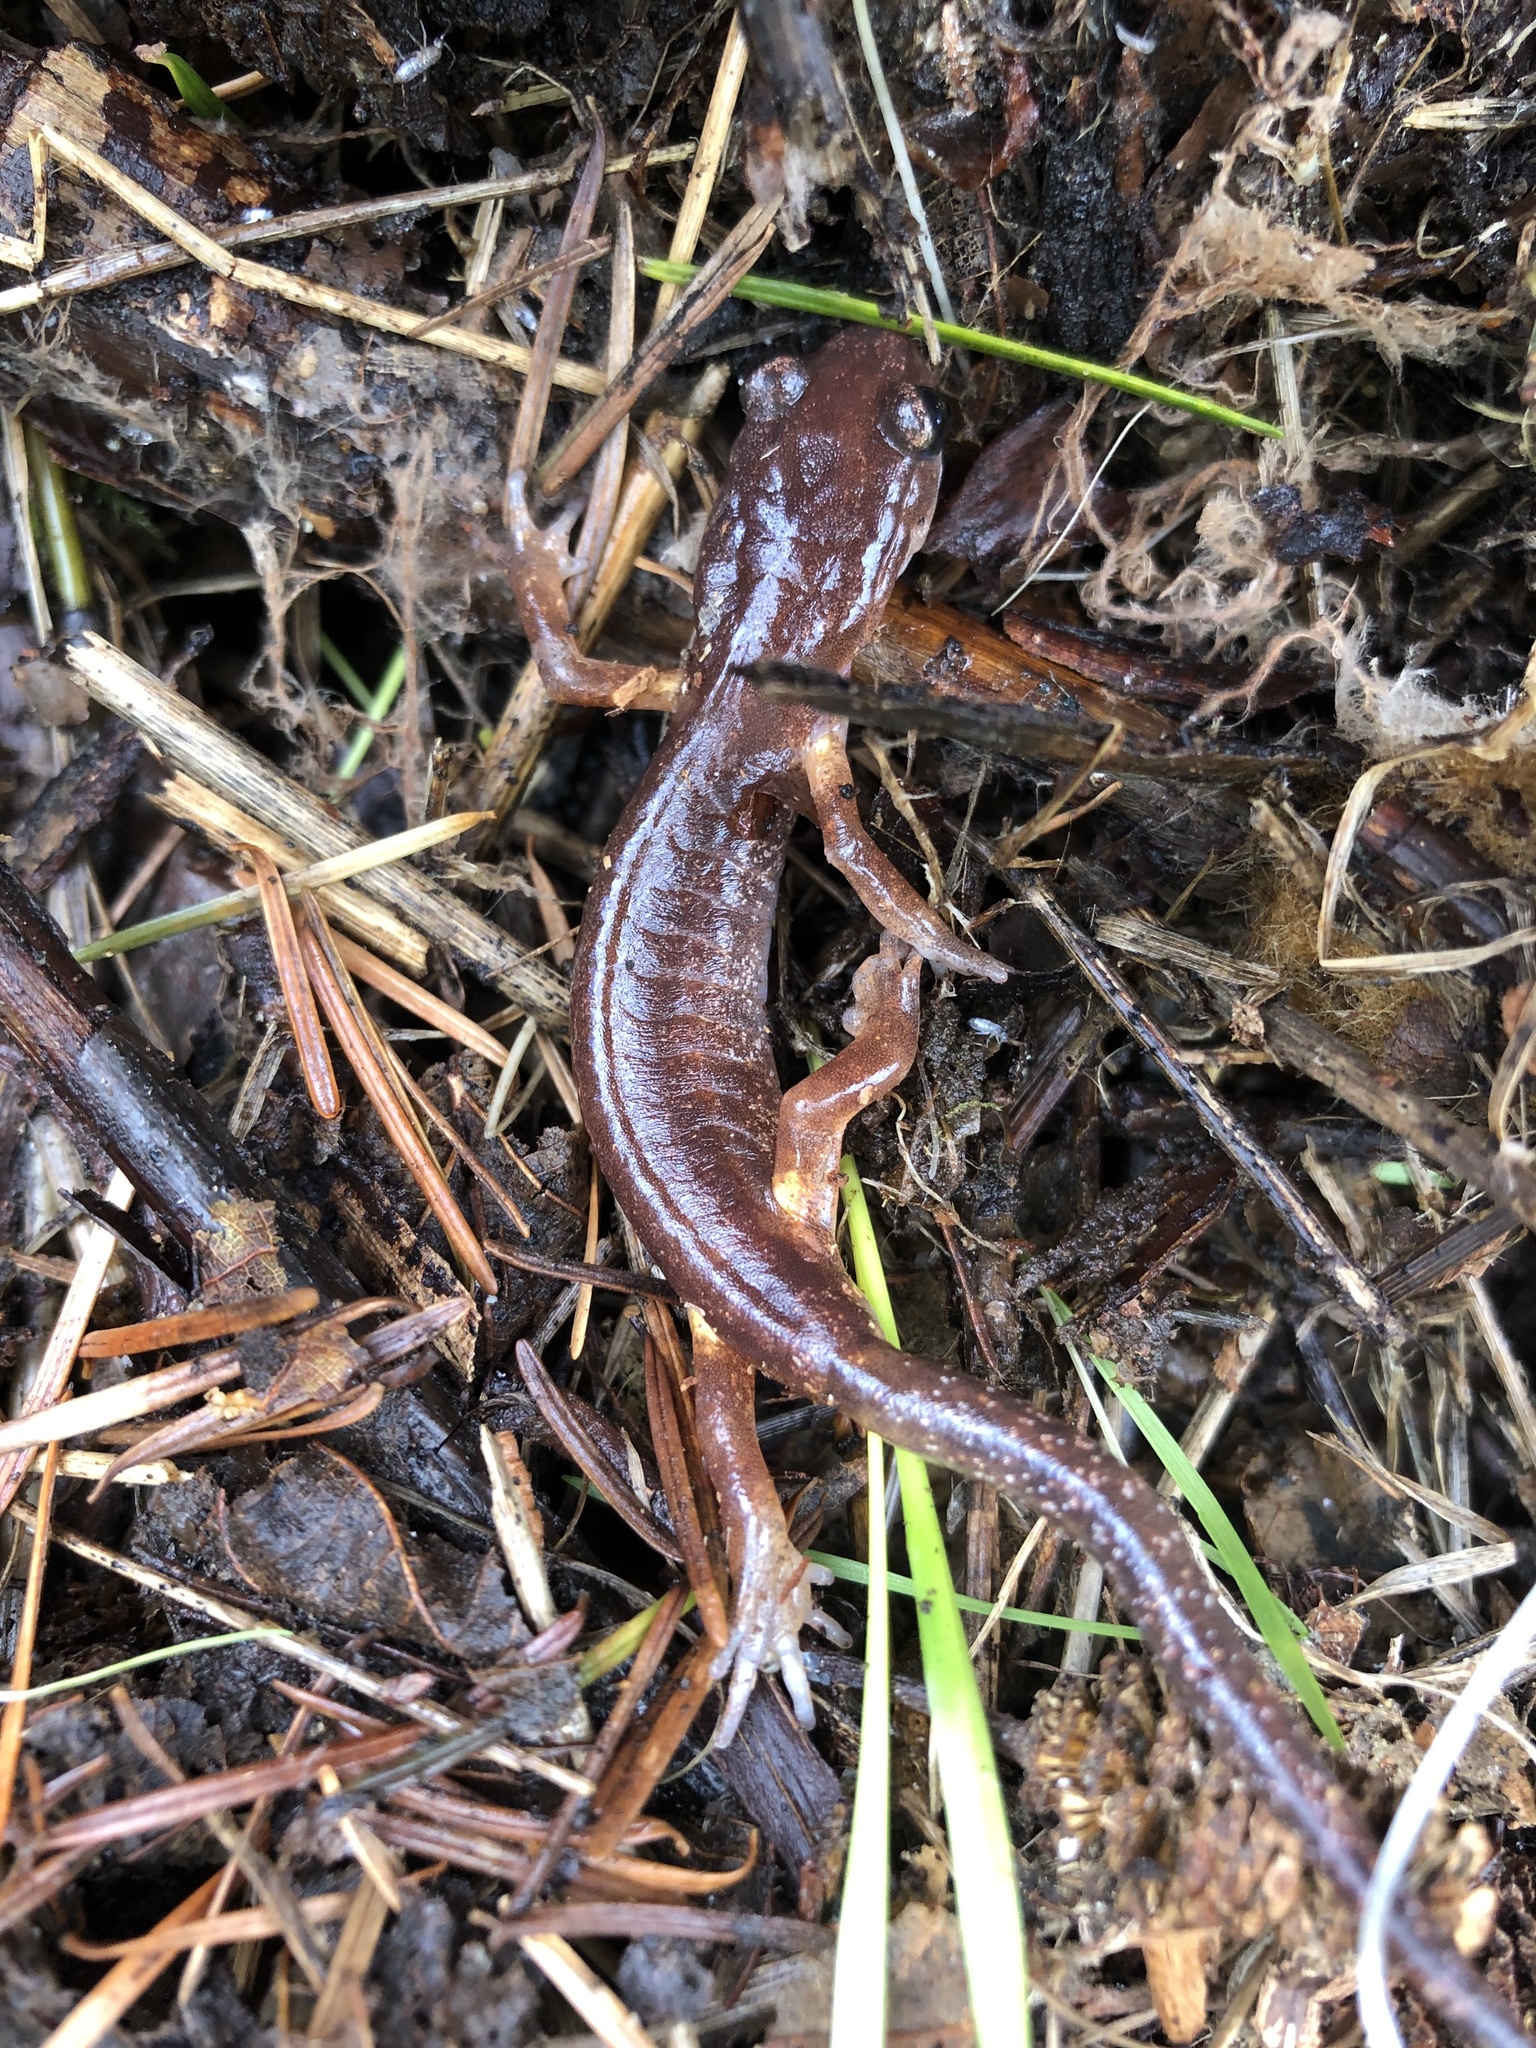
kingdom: Animalia
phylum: Chordata
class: Amphibia
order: Caudata
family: Plethodontidae
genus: Ensatina
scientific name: Ensatina eschscholtzii
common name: Ensatina
